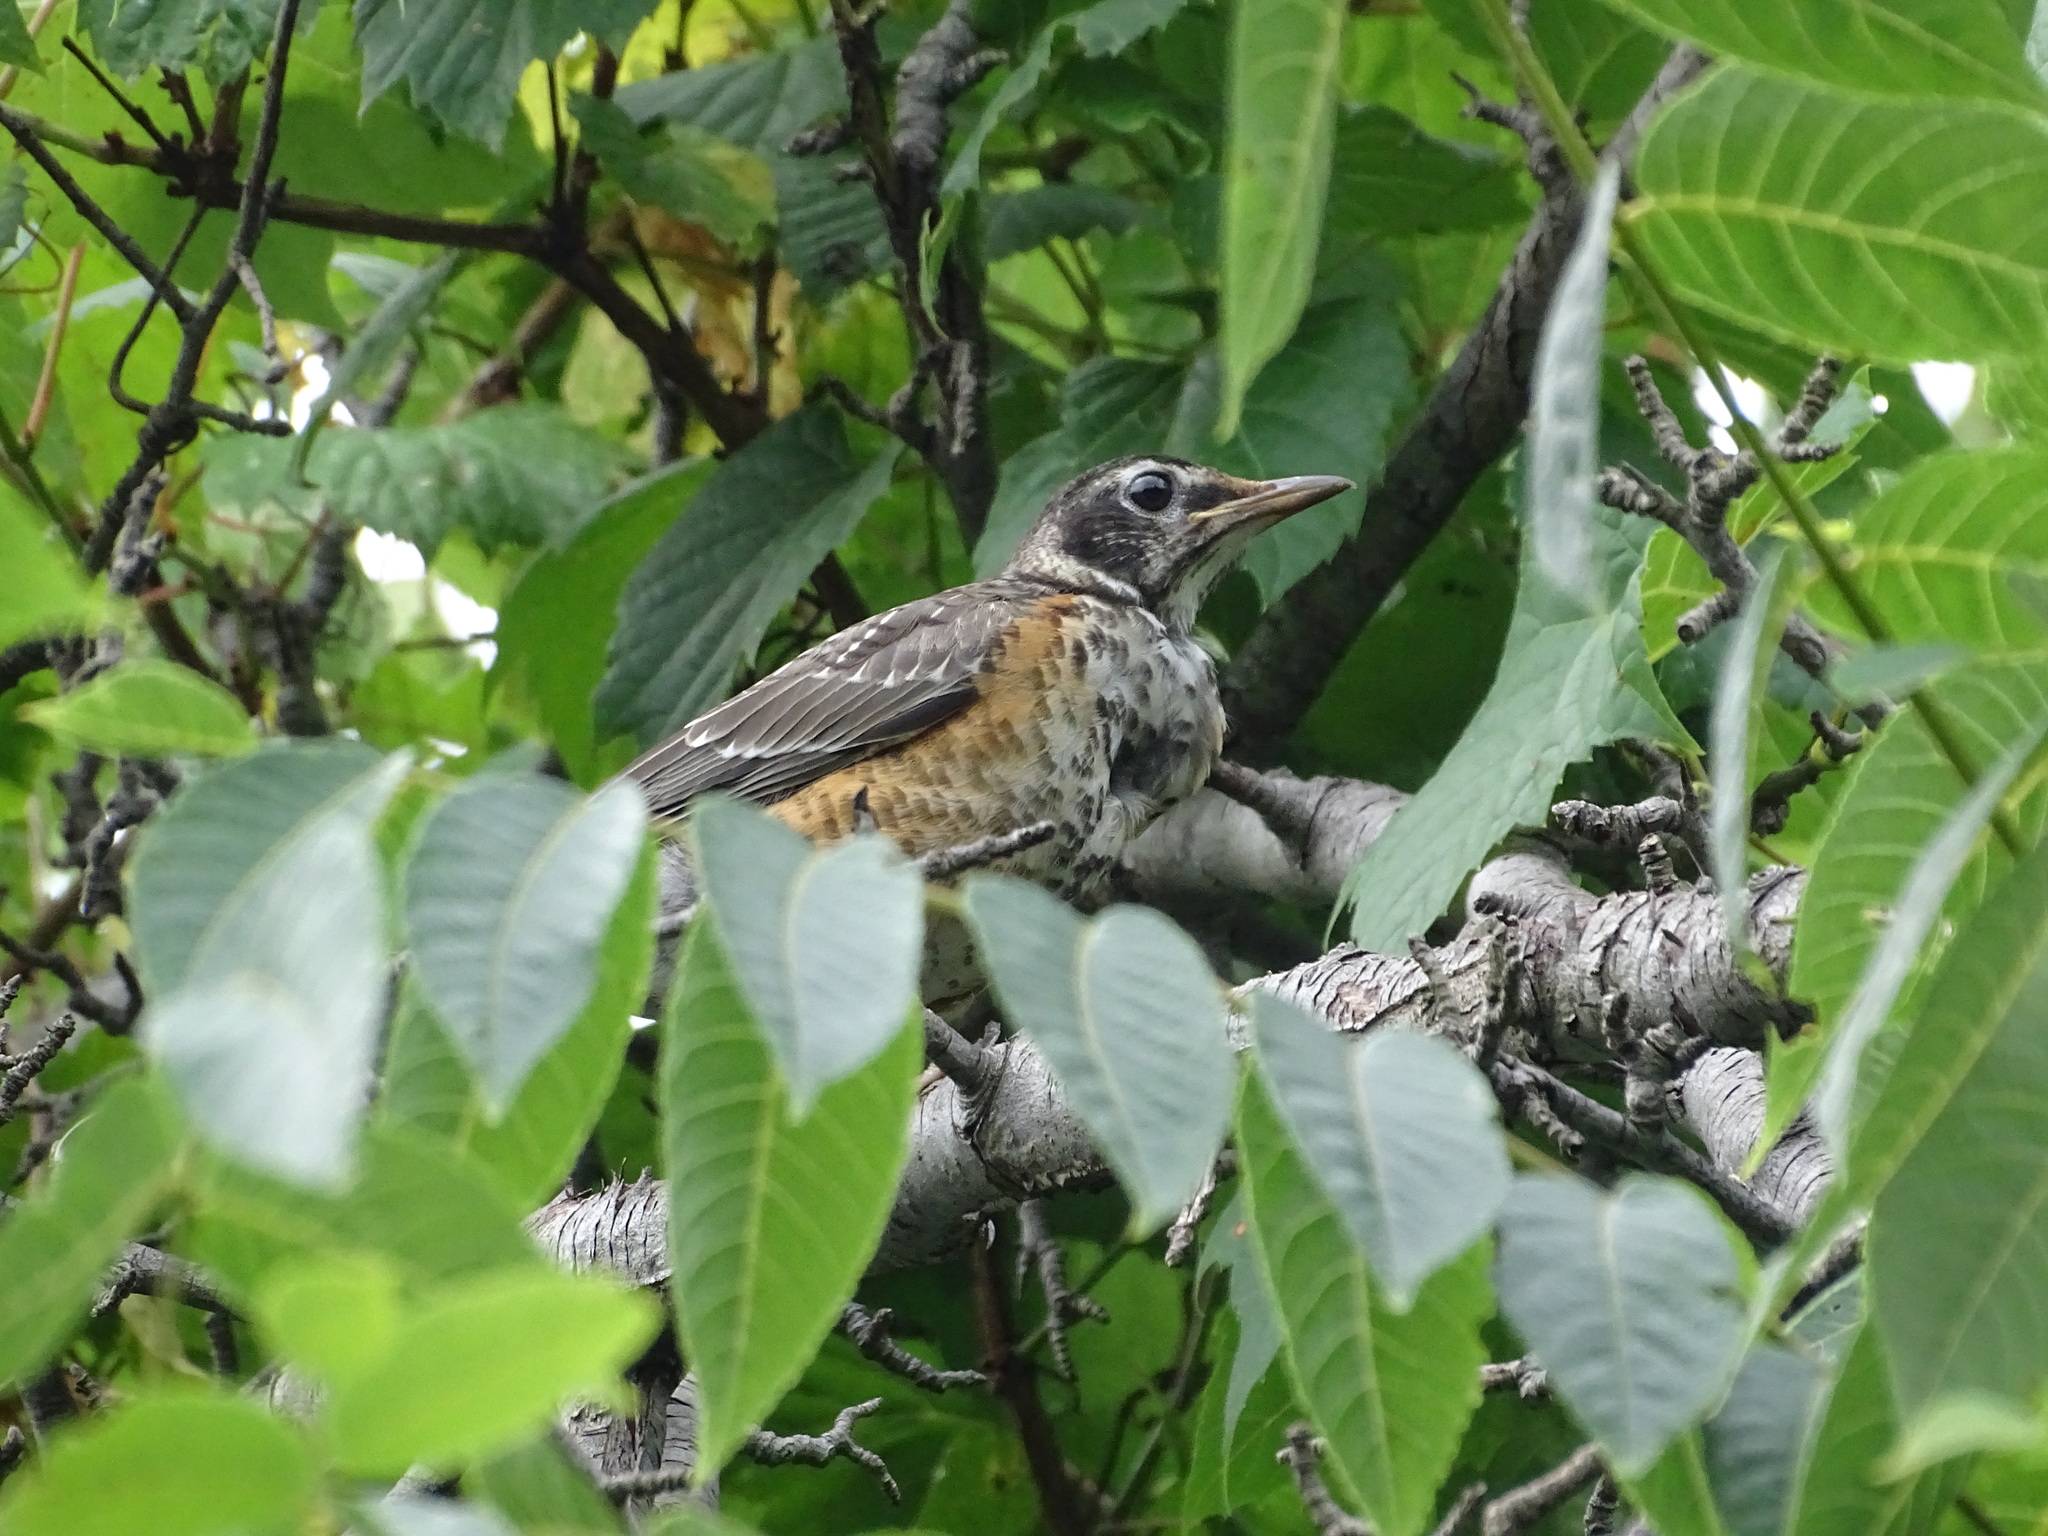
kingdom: Animalia
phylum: Chordata
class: Aves
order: Passeriformes
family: Turdidae
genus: Turdus
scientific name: Turdus migratorius
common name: American robin
